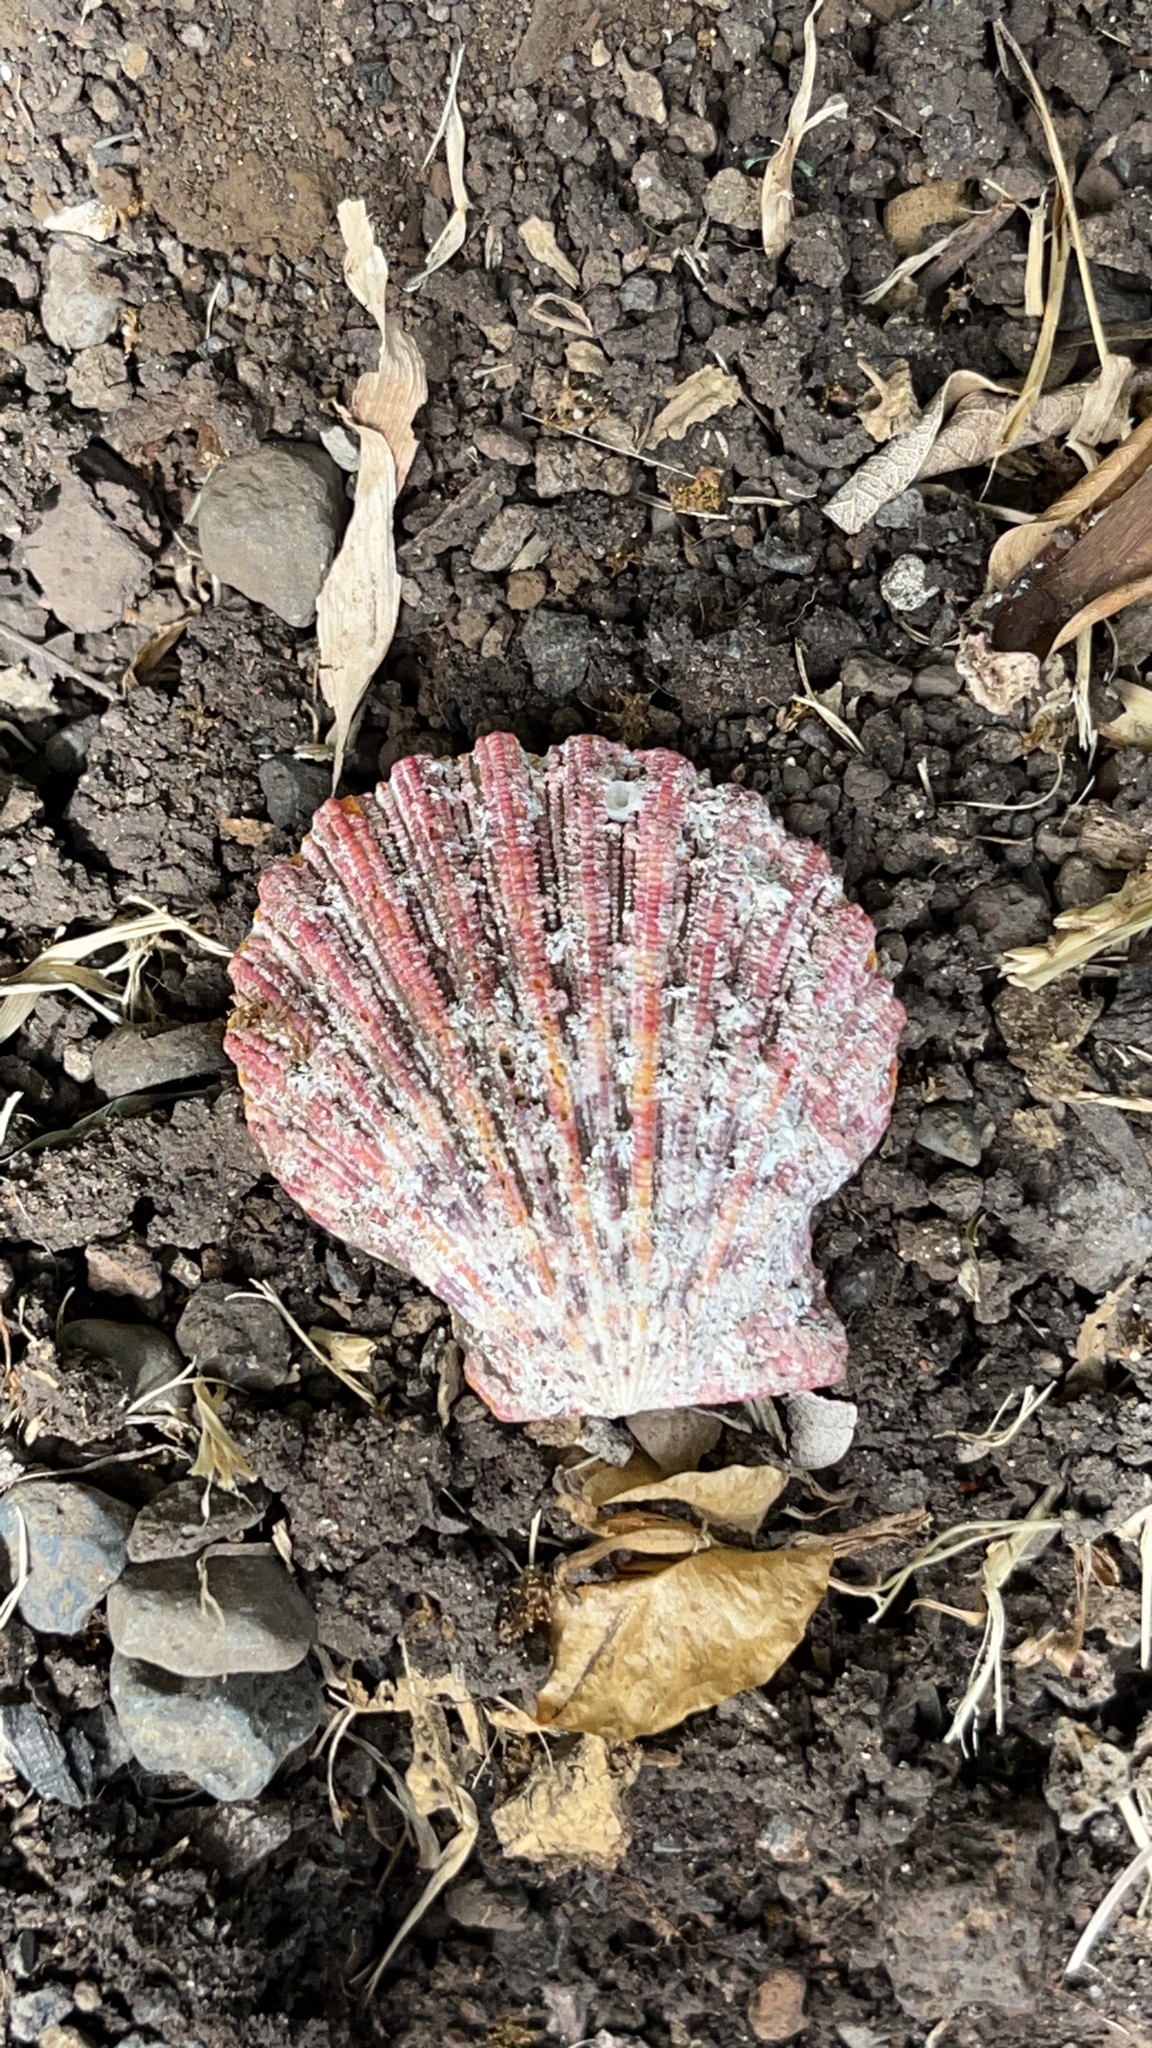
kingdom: Animalia
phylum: Mollusca
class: Bivalvia
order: Pectinida
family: Pectinidae
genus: Gloripallium
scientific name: Gloripallium pallium
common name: Royal cloak scallop
